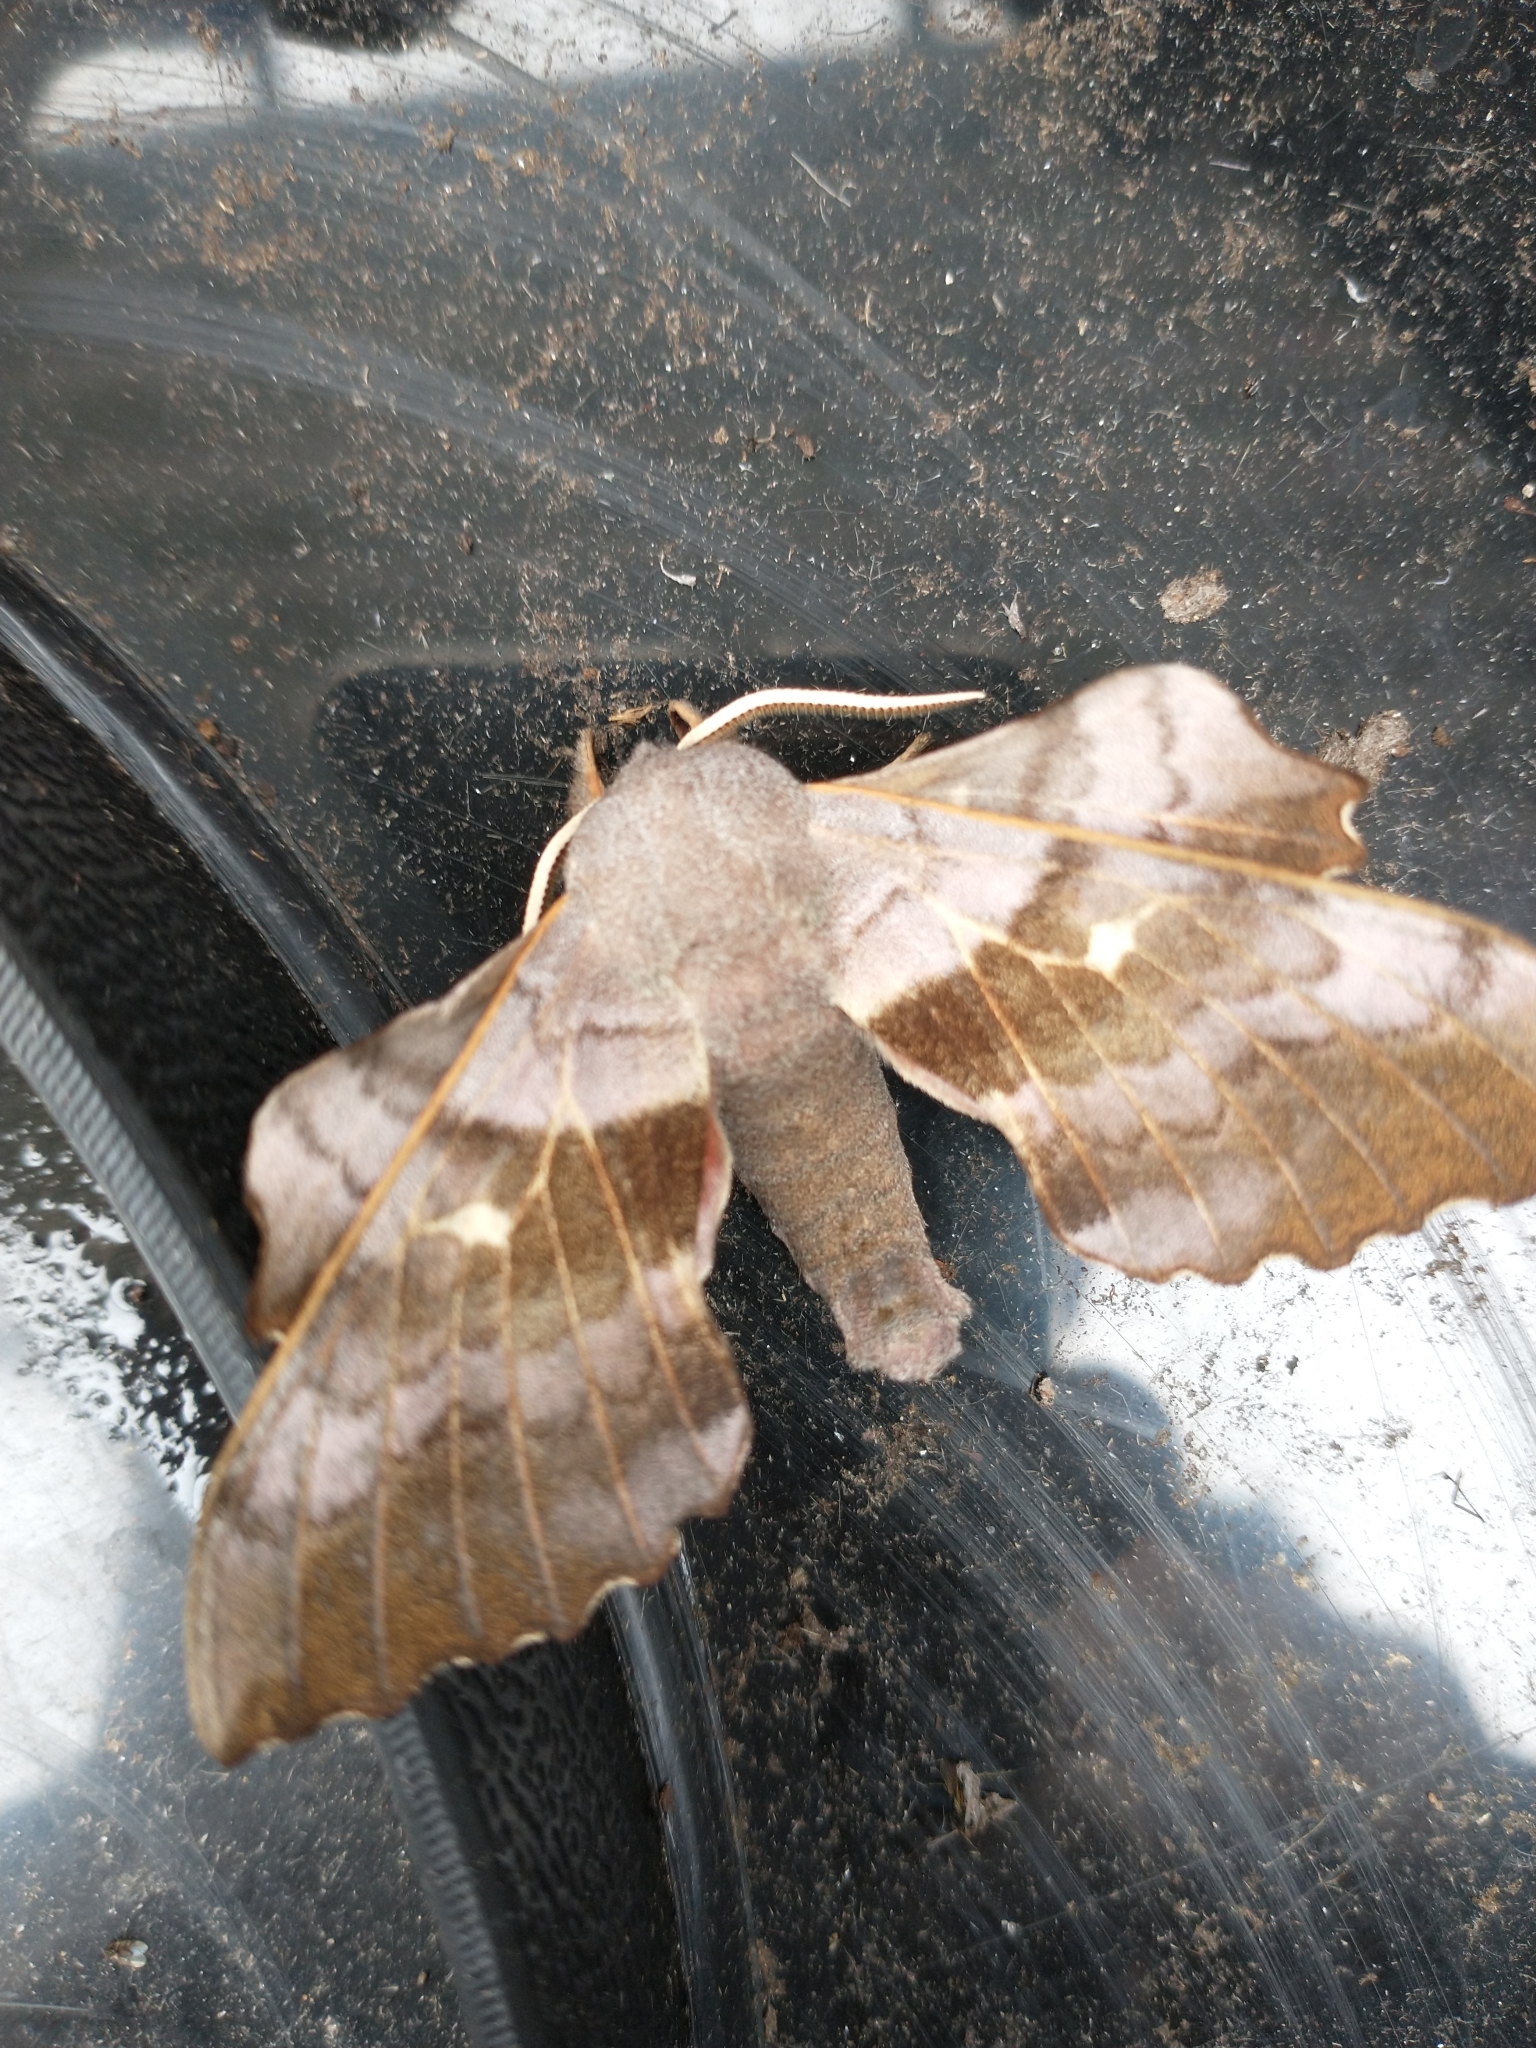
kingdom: Animalia
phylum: Arthropoda
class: Insecta
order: Lepidoptera
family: Sphingidae
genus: Laothoe
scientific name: Laothoe populi
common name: Poplar hawk-moth
